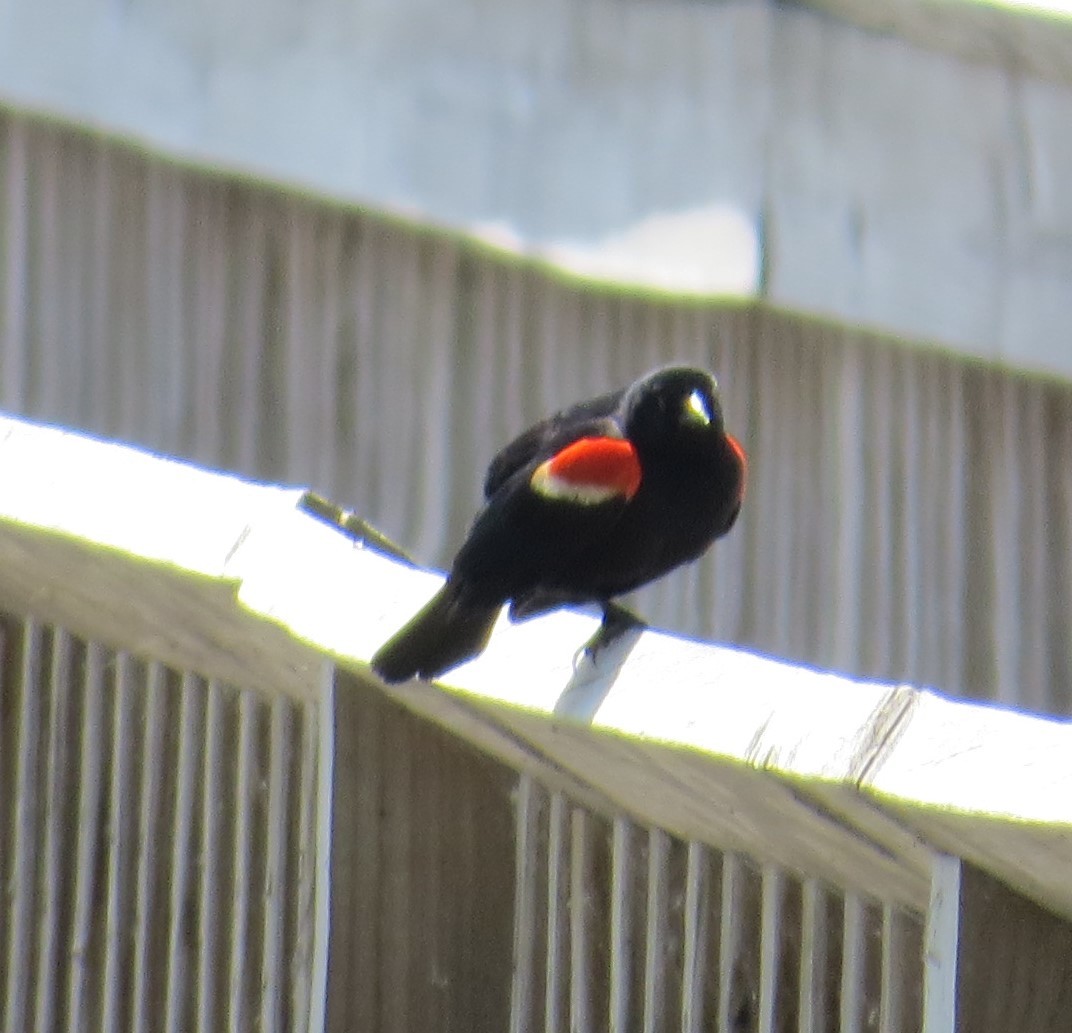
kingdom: Animalia
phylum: Chordata
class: Aves
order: Passeriformes
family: Icteridae
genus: Agelaius
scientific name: Agelaius phoeniceus
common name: Red-winged blackbird
